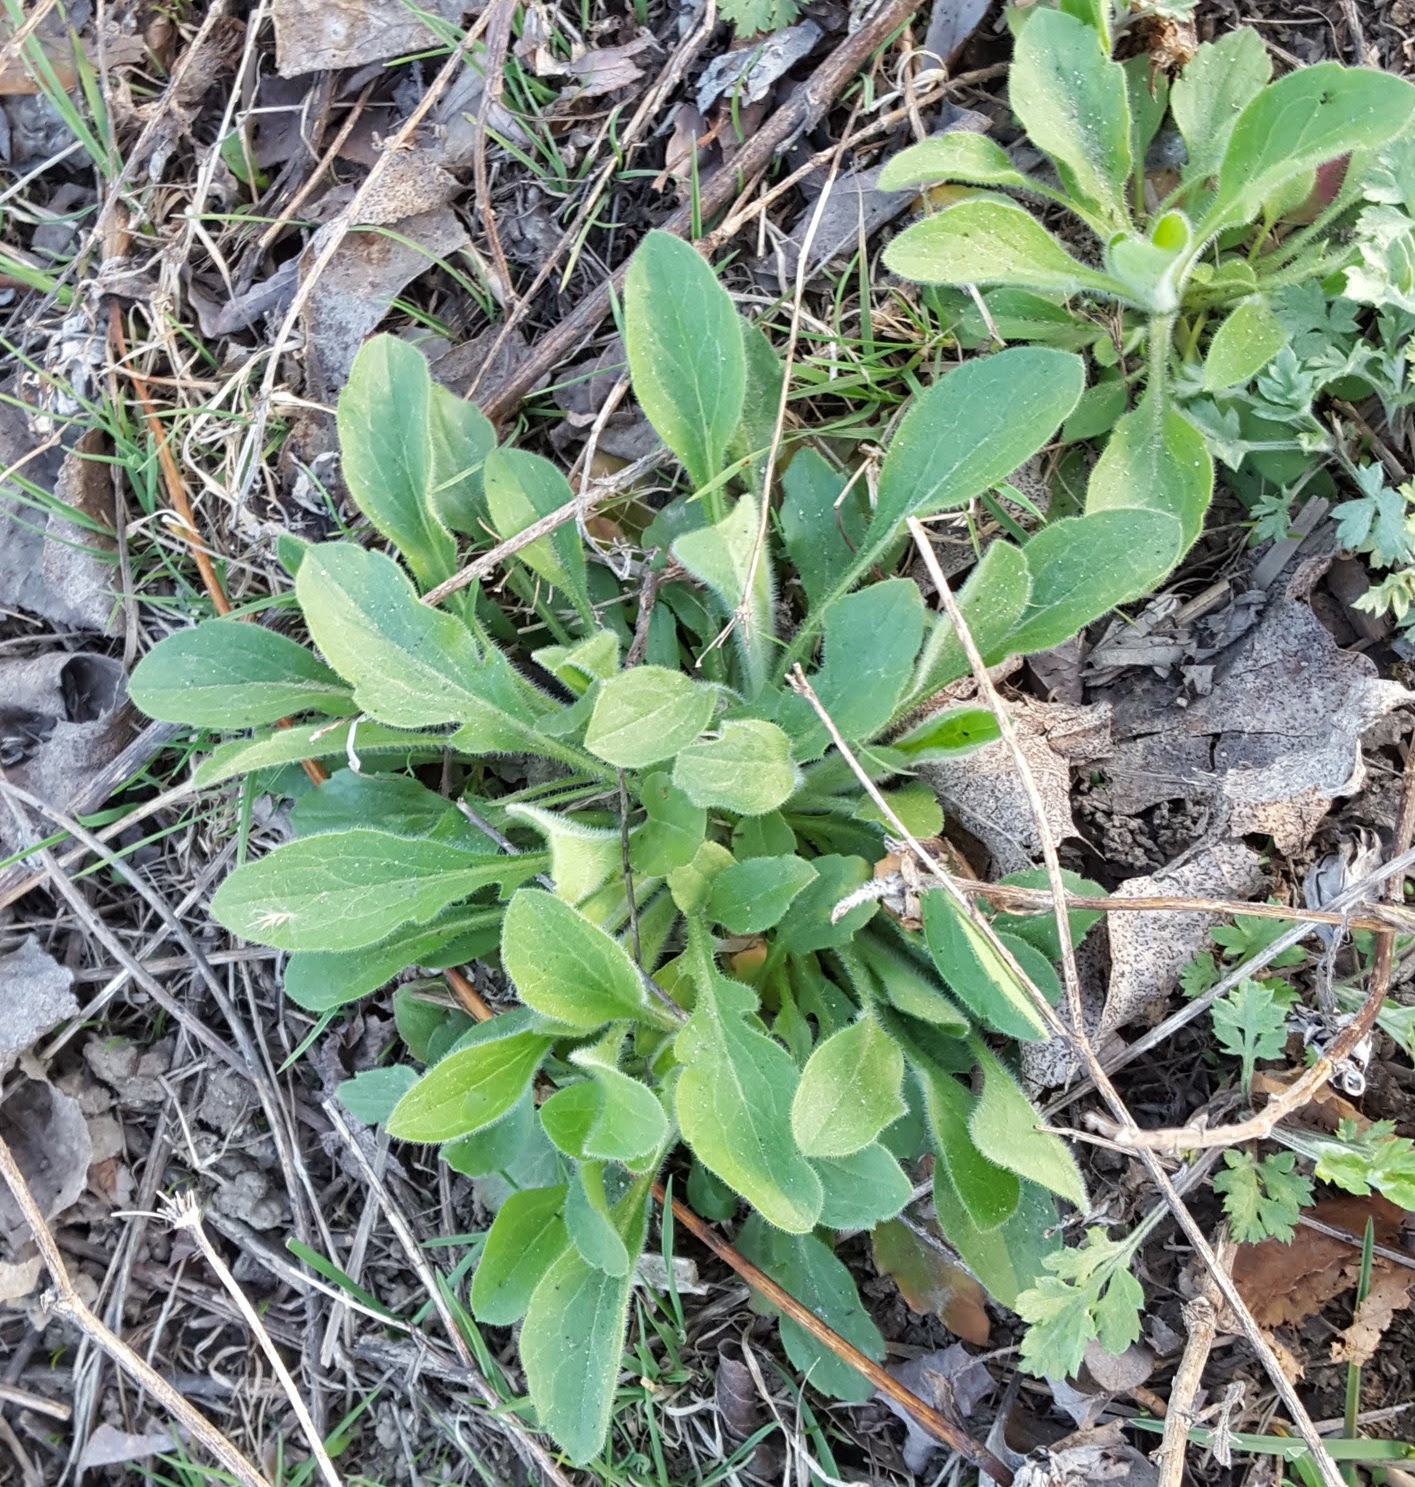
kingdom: Plantae
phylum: Tracheophyta
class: Magnoliopsida
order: Asterales
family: Asteraceae
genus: Erigeron
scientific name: Erigeron canadensis
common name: Canadian fleabane
